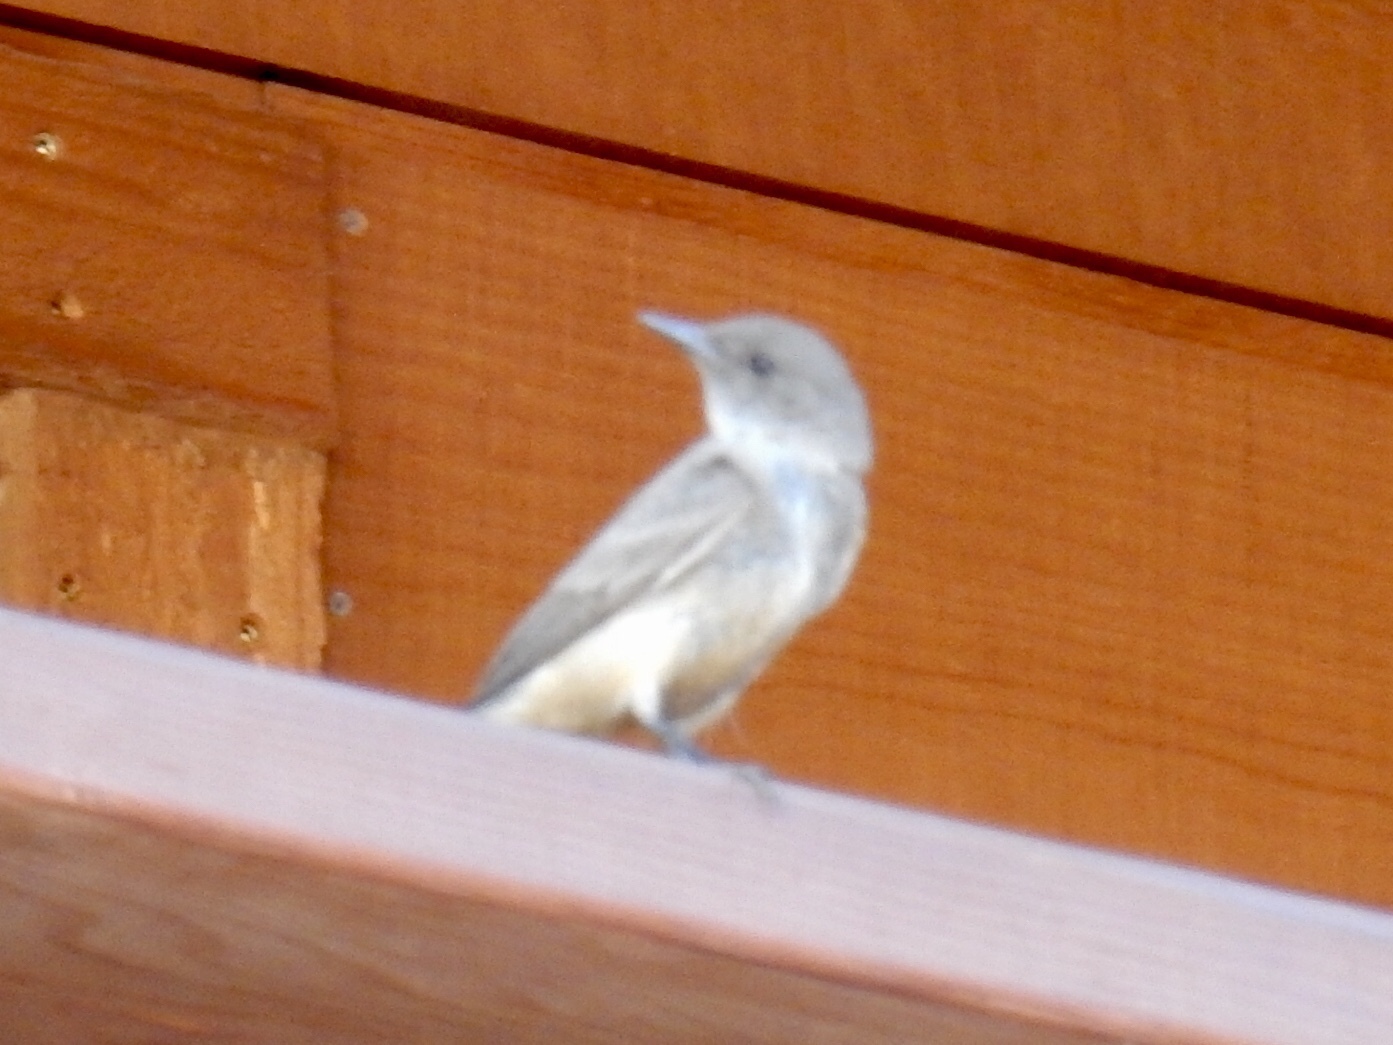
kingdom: Animalia
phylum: Chordata
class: Aves
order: Passeriformes
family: Tyrannidae
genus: Sayornis
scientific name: Sayornis saya
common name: Say's phoebe
